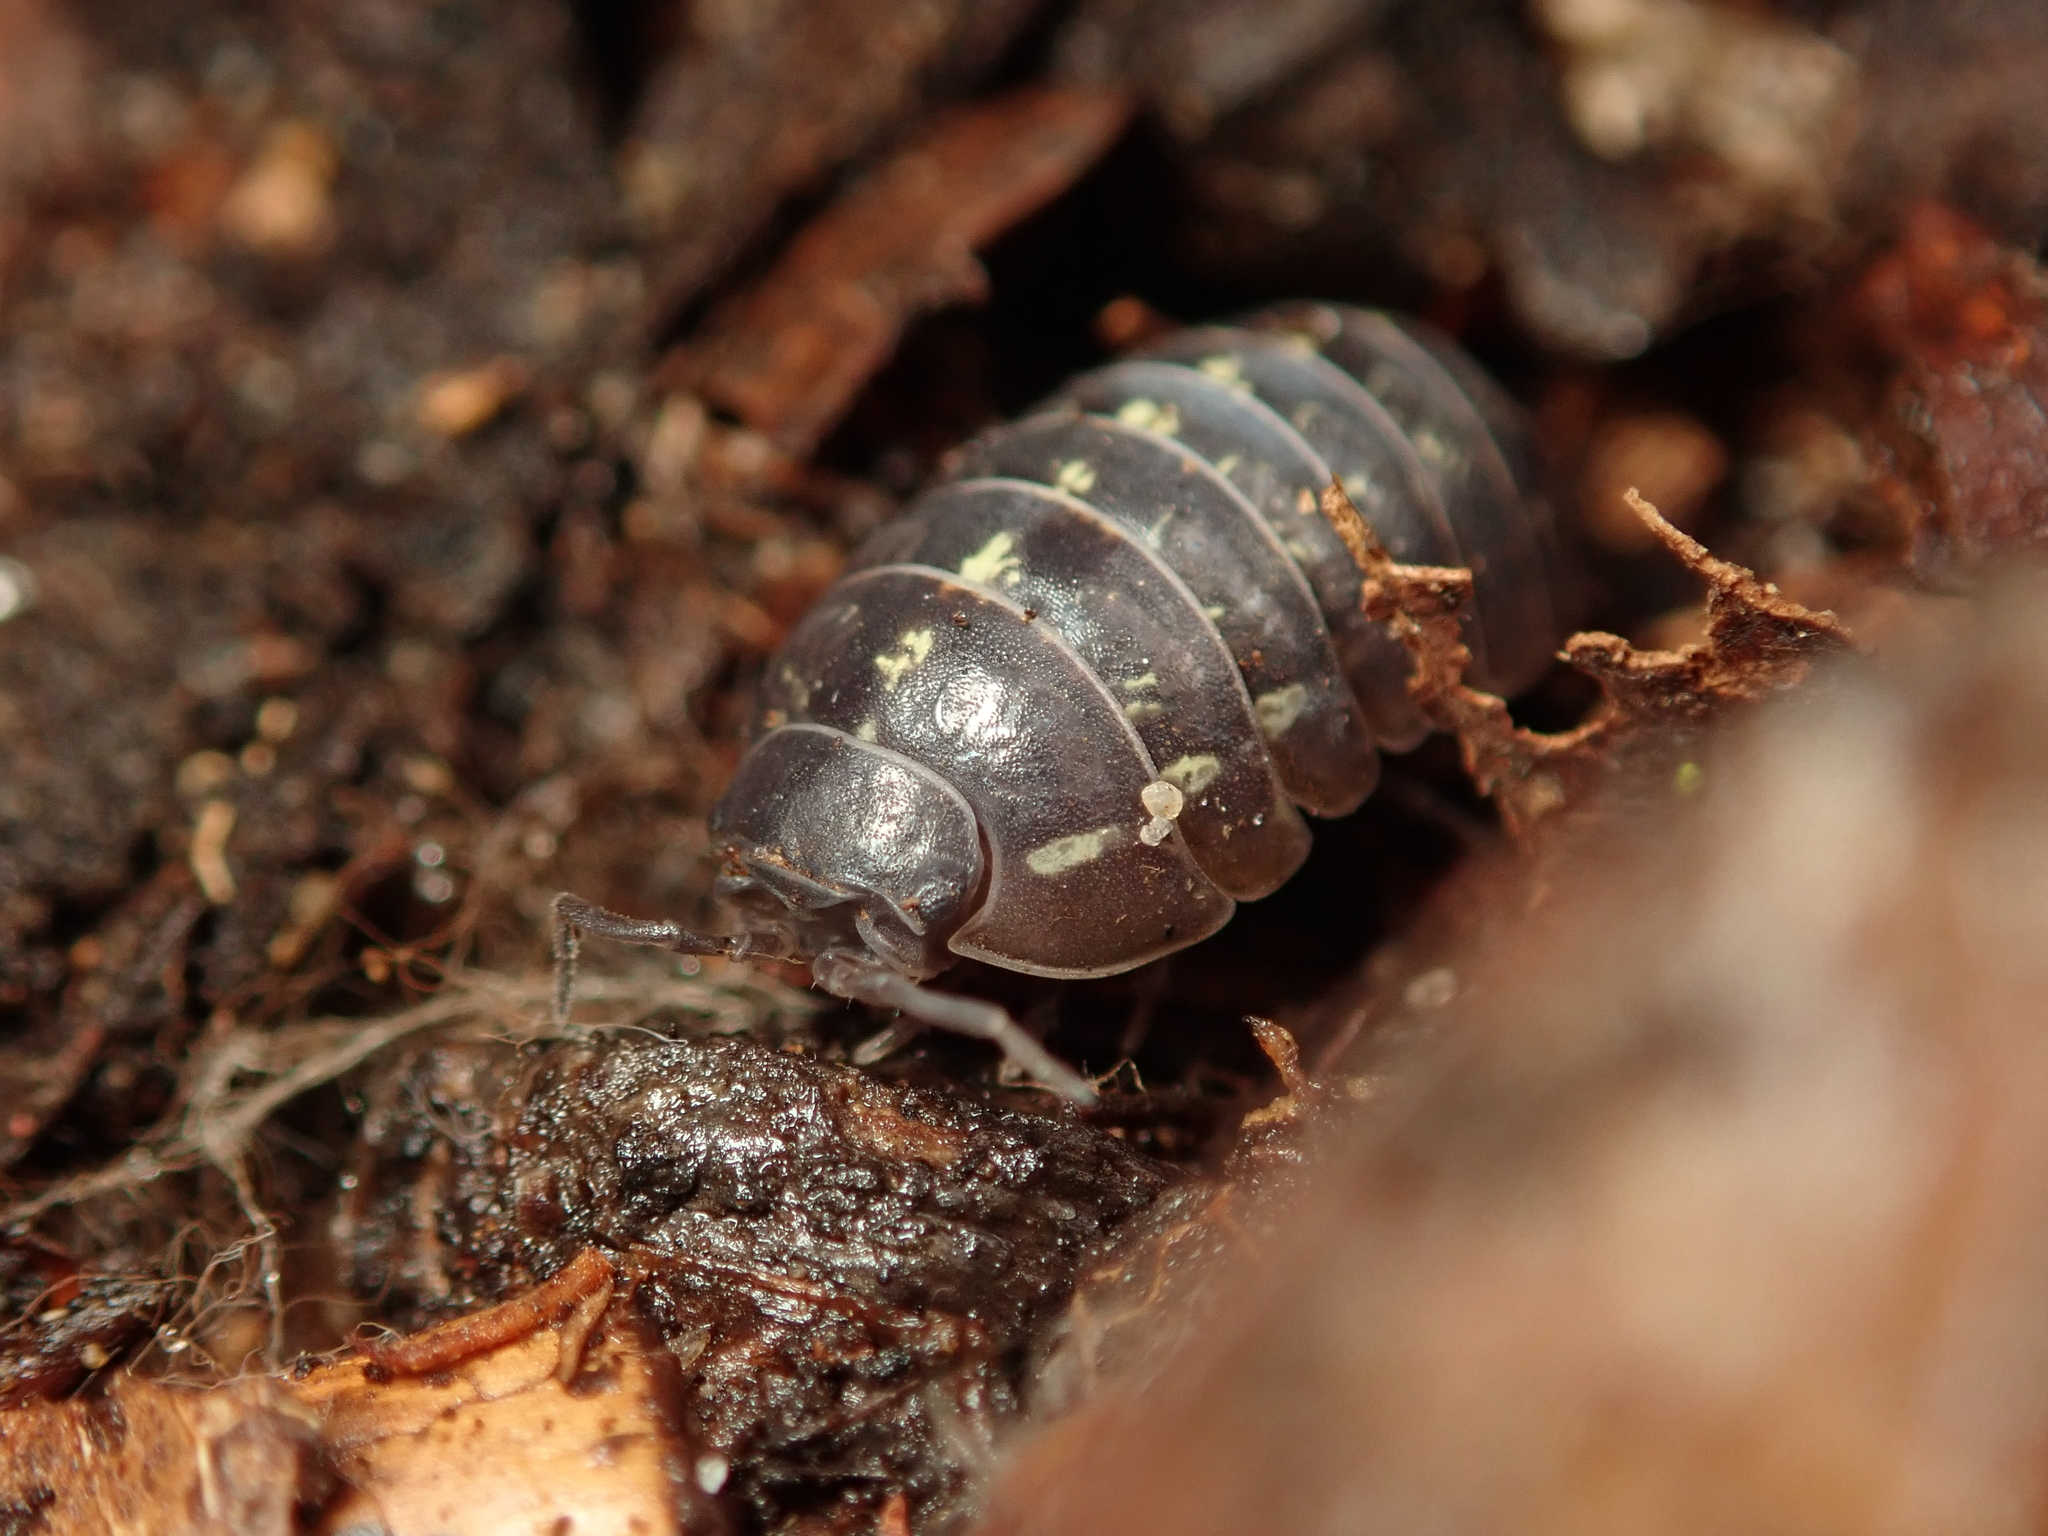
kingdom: Animalia
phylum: Arthropoda
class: Malacostraca
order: Isopoda
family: Armadillidiidae
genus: Armadillidium
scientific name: Armadillidium vulgare
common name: Common pill woodlouse
